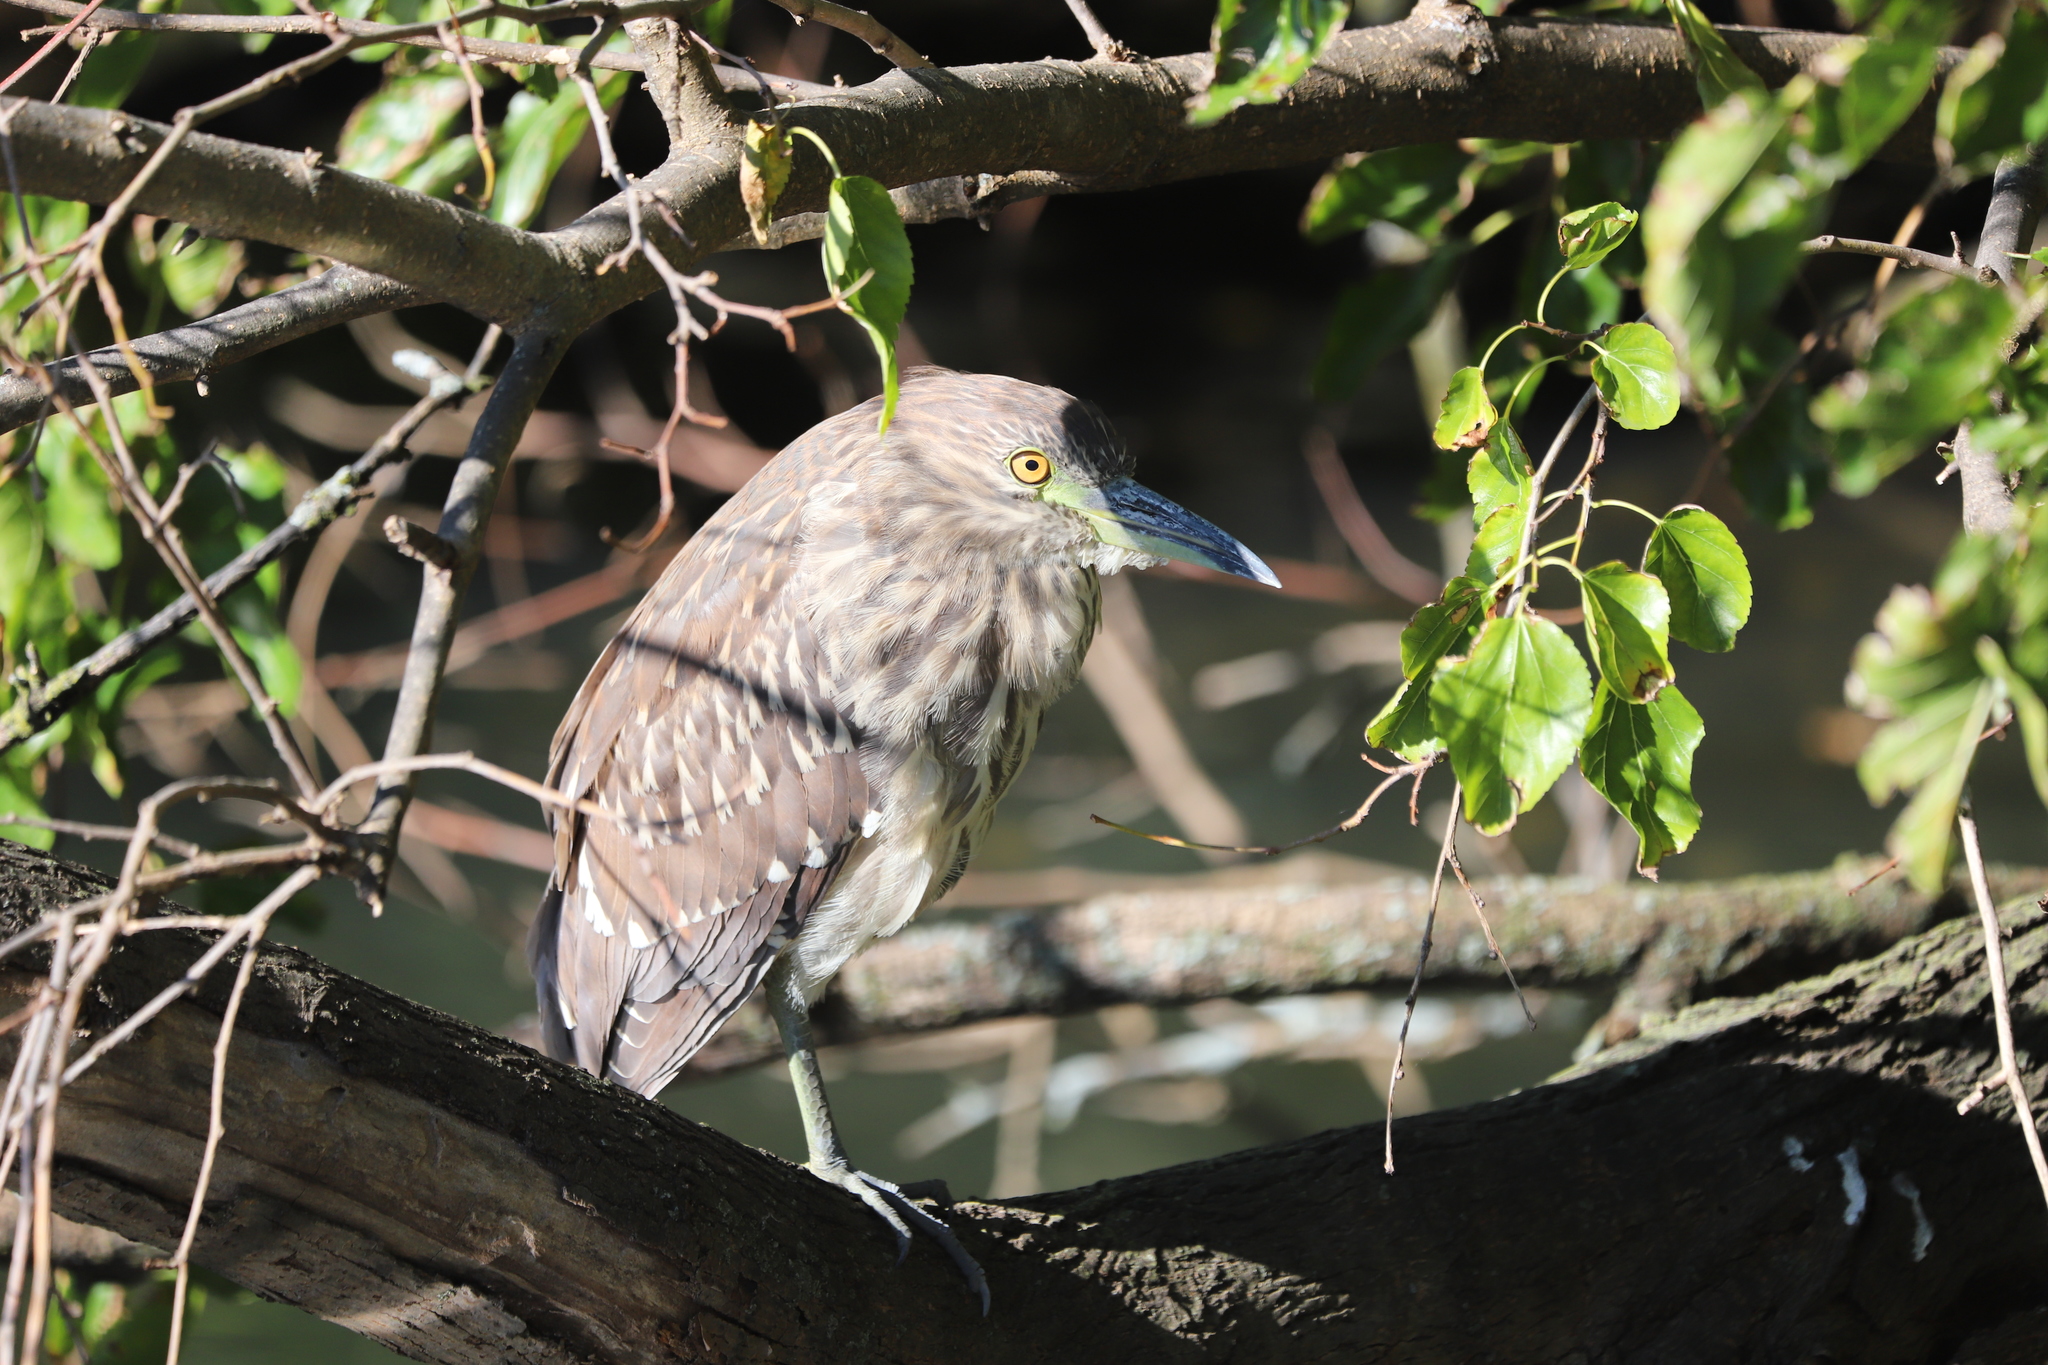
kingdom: Animalia
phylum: Chordata
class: Aves
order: Pelecaniformes
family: Ardeidae
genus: Nycticorax
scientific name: Nycticorax nycticorax
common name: Black-crowned night heron
